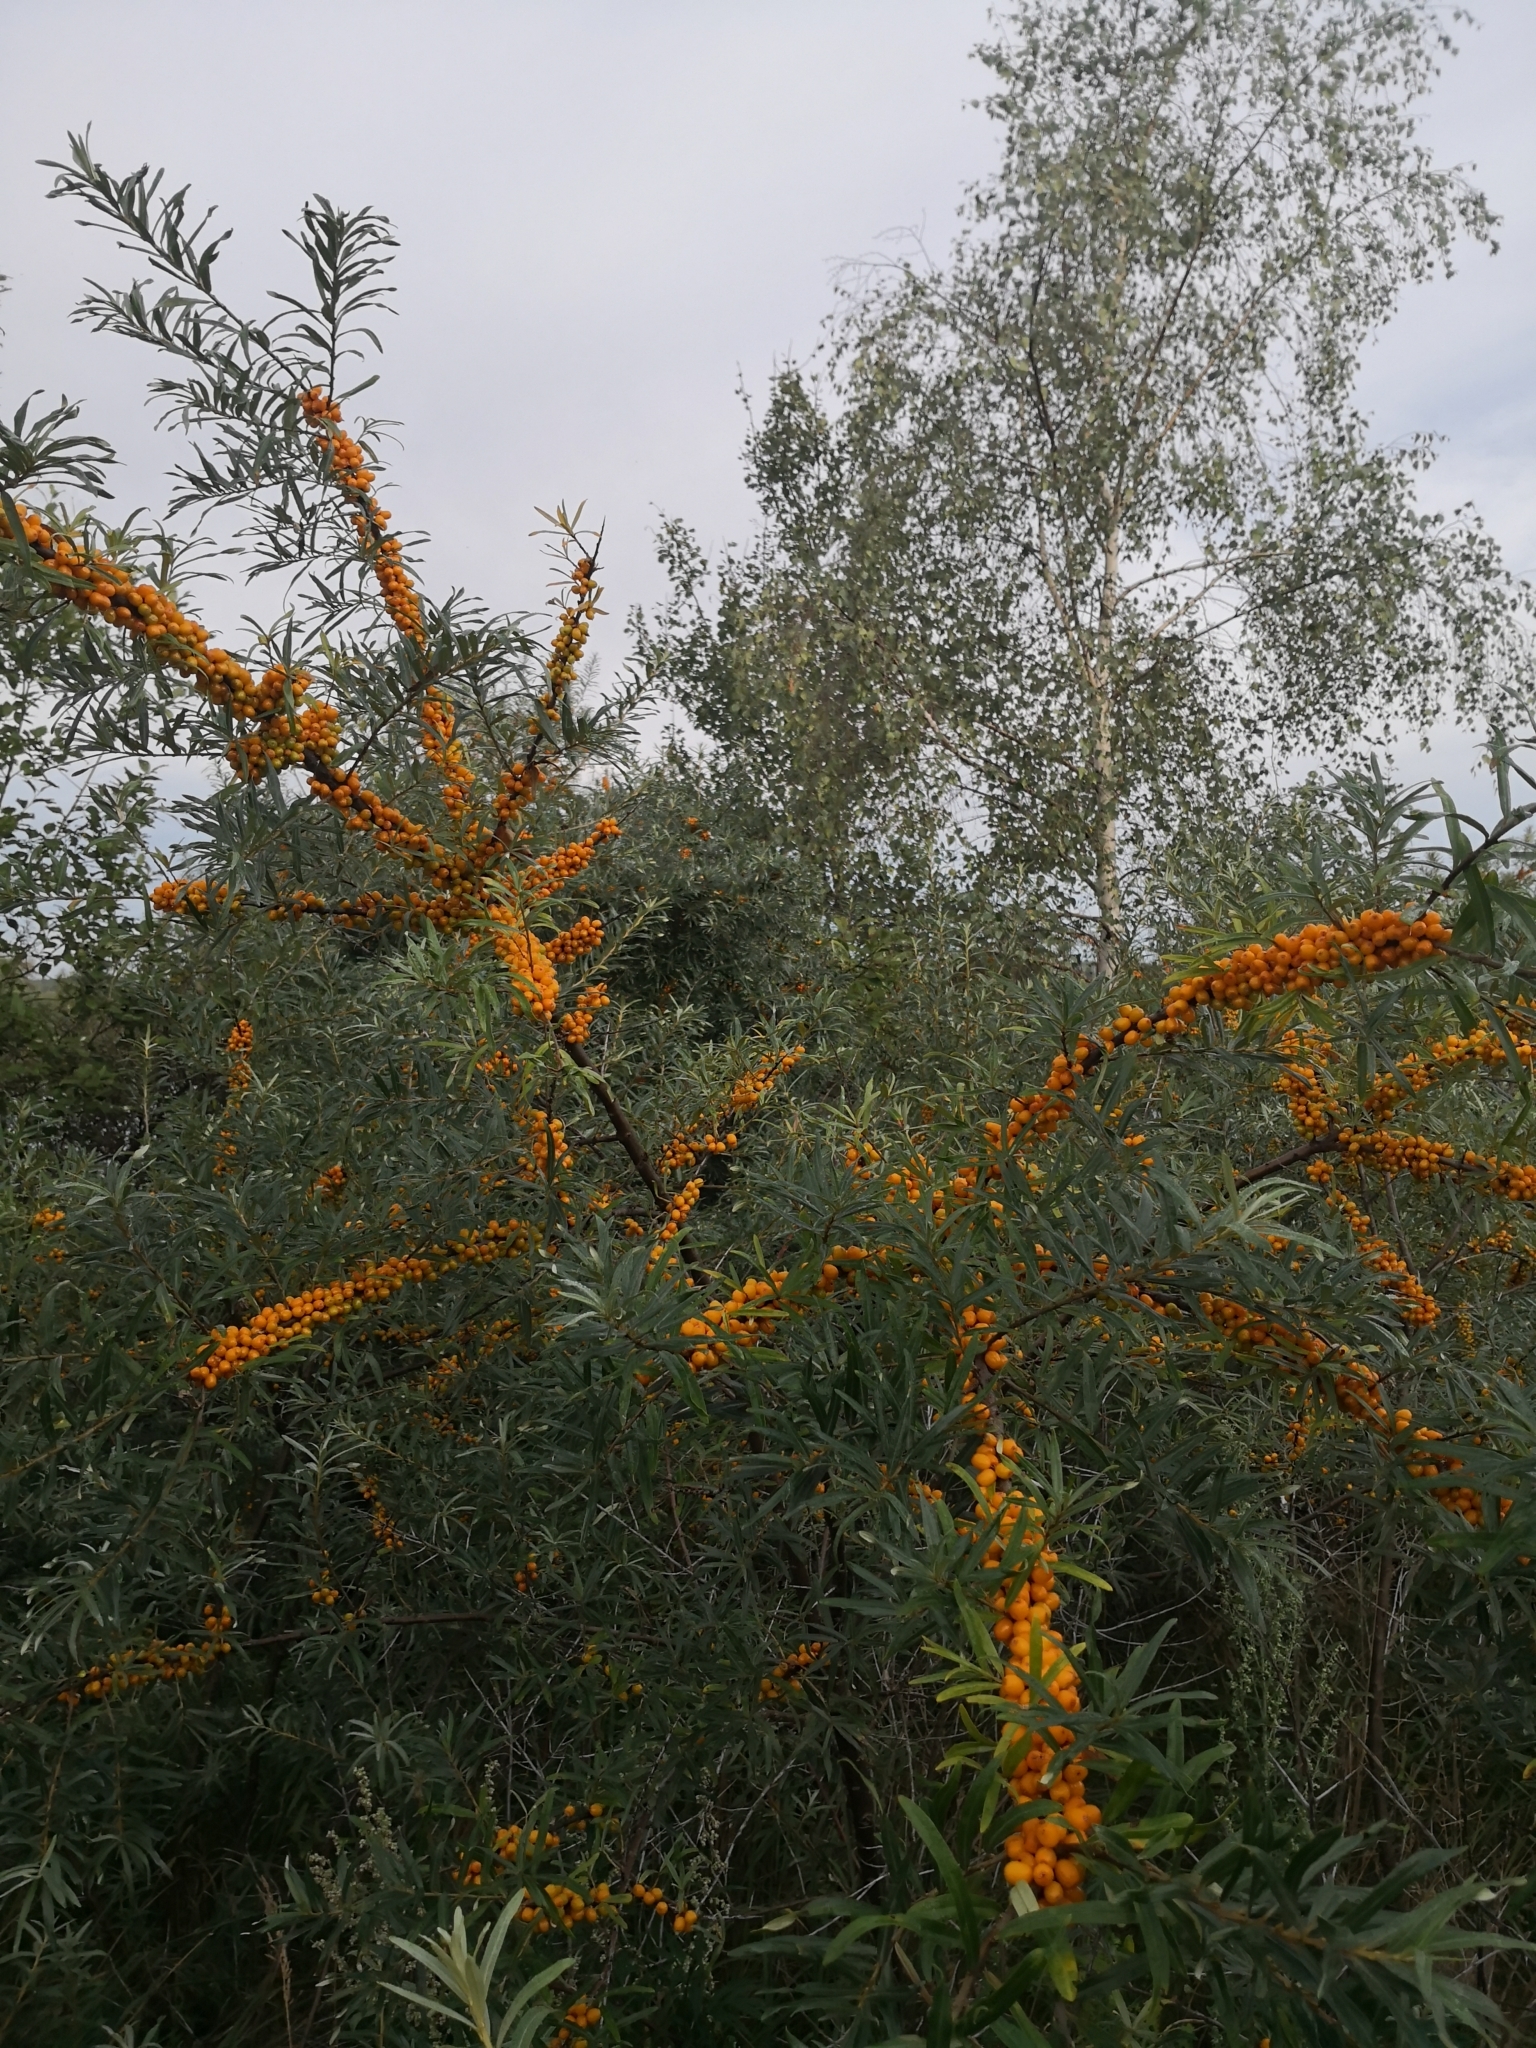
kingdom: Plantae
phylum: Tracheophyta
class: Magnoliopsida
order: Rosales
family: Elaeagnaceae
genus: Hippophae
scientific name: Hippophae rhamnoides
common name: Sea-buckthorn
